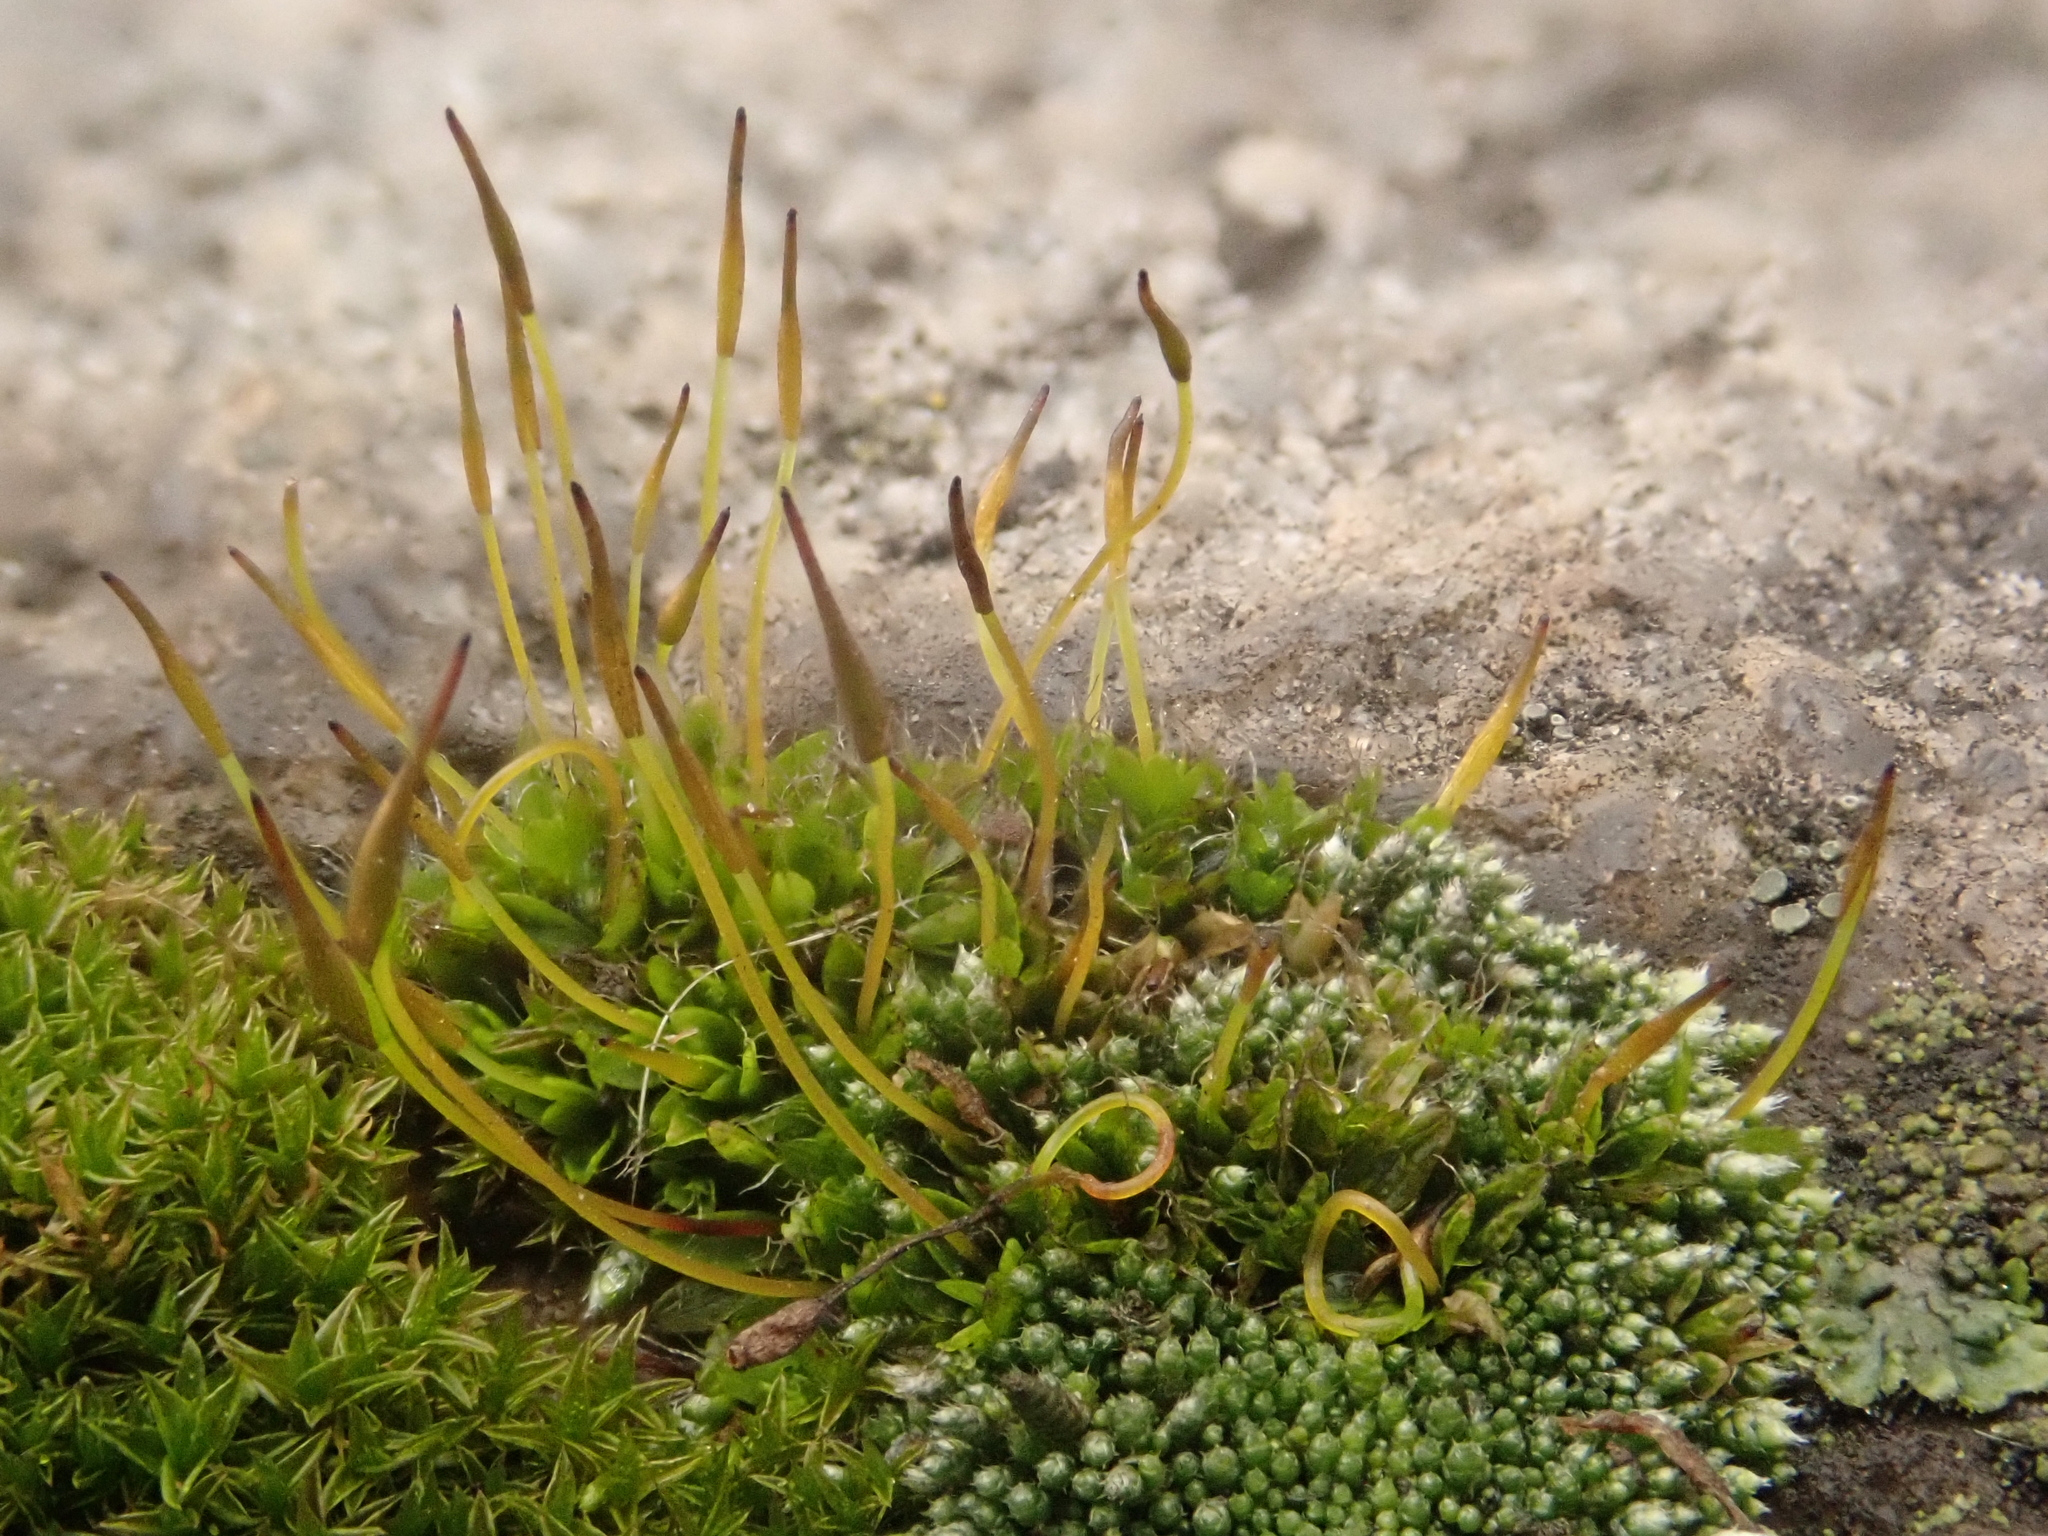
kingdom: Plantae
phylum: Bryophyta
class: Bryopsida
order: Pottiales
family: Pottiaceae
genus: Tortula
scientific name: Tortula muralis
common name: Wall screw-moss
